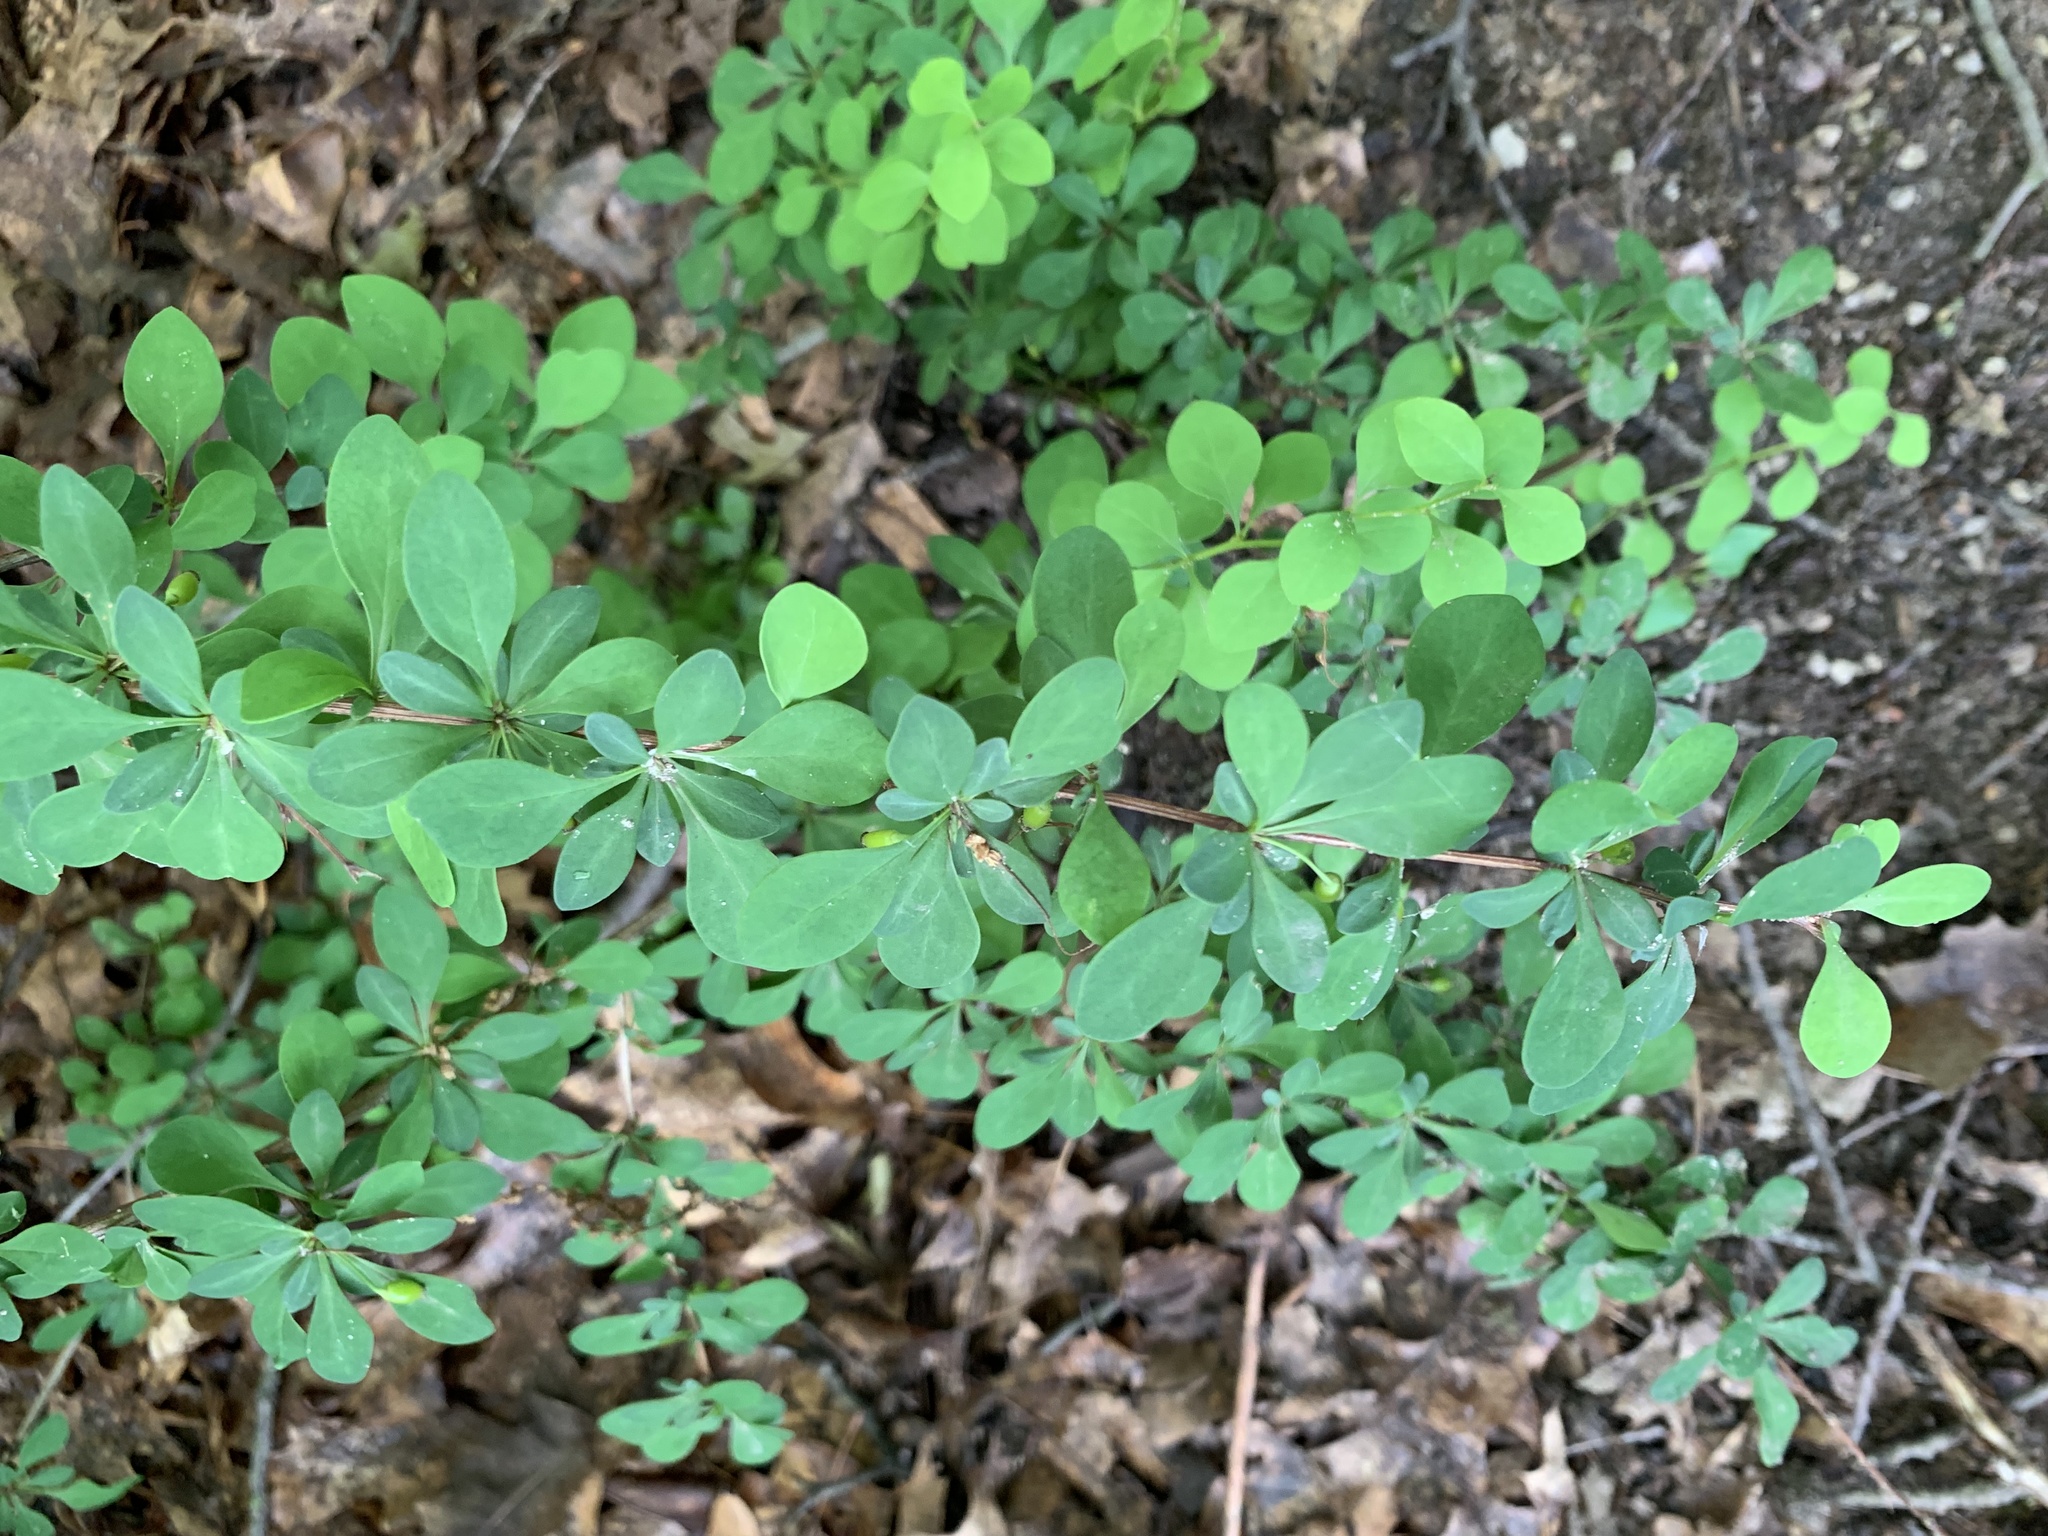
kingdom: Plantae
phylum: Tracheophyta
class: Magnoliopsida
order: Ranunculales
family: Berberidaceae
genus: Berberis
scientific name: Berberis thunbergii
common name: Japanese barberry
